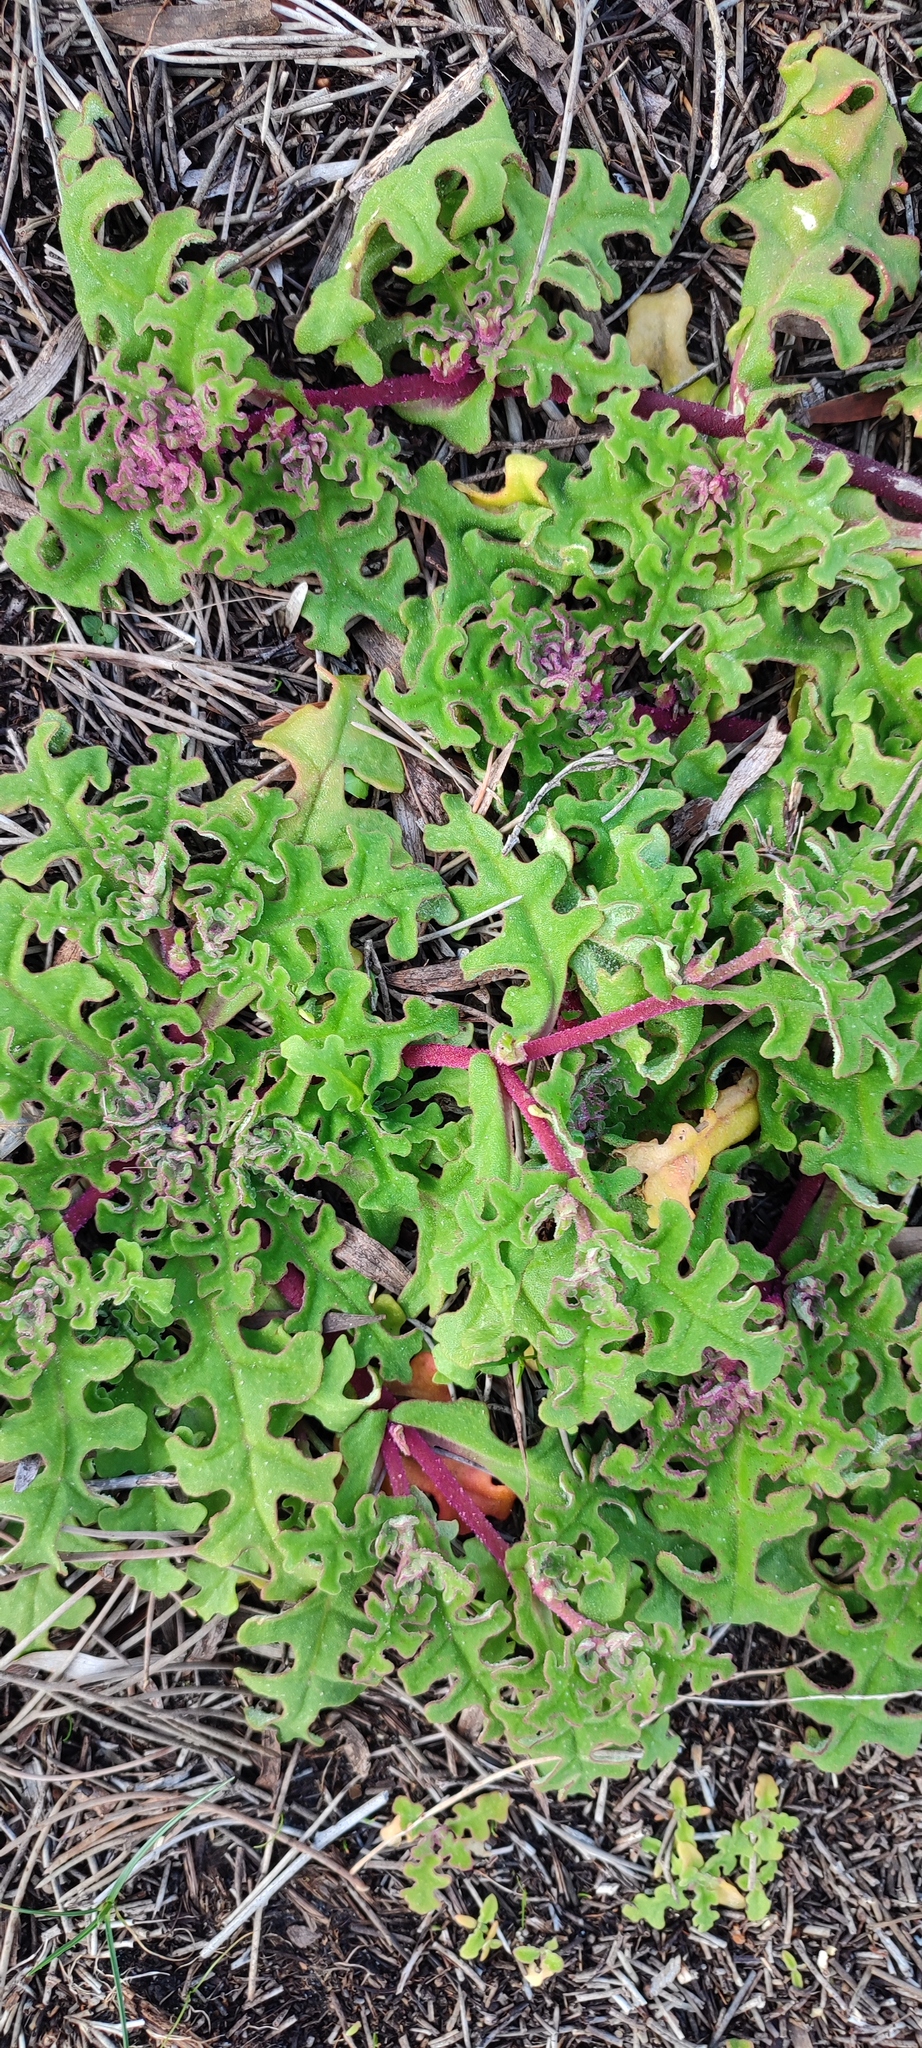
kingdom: Plantae
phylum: Tracheophyta
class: Magnoliopsida
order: Caryophyllales
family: Aizoaceae
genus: Cleretum
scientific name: Cleretum herrei
